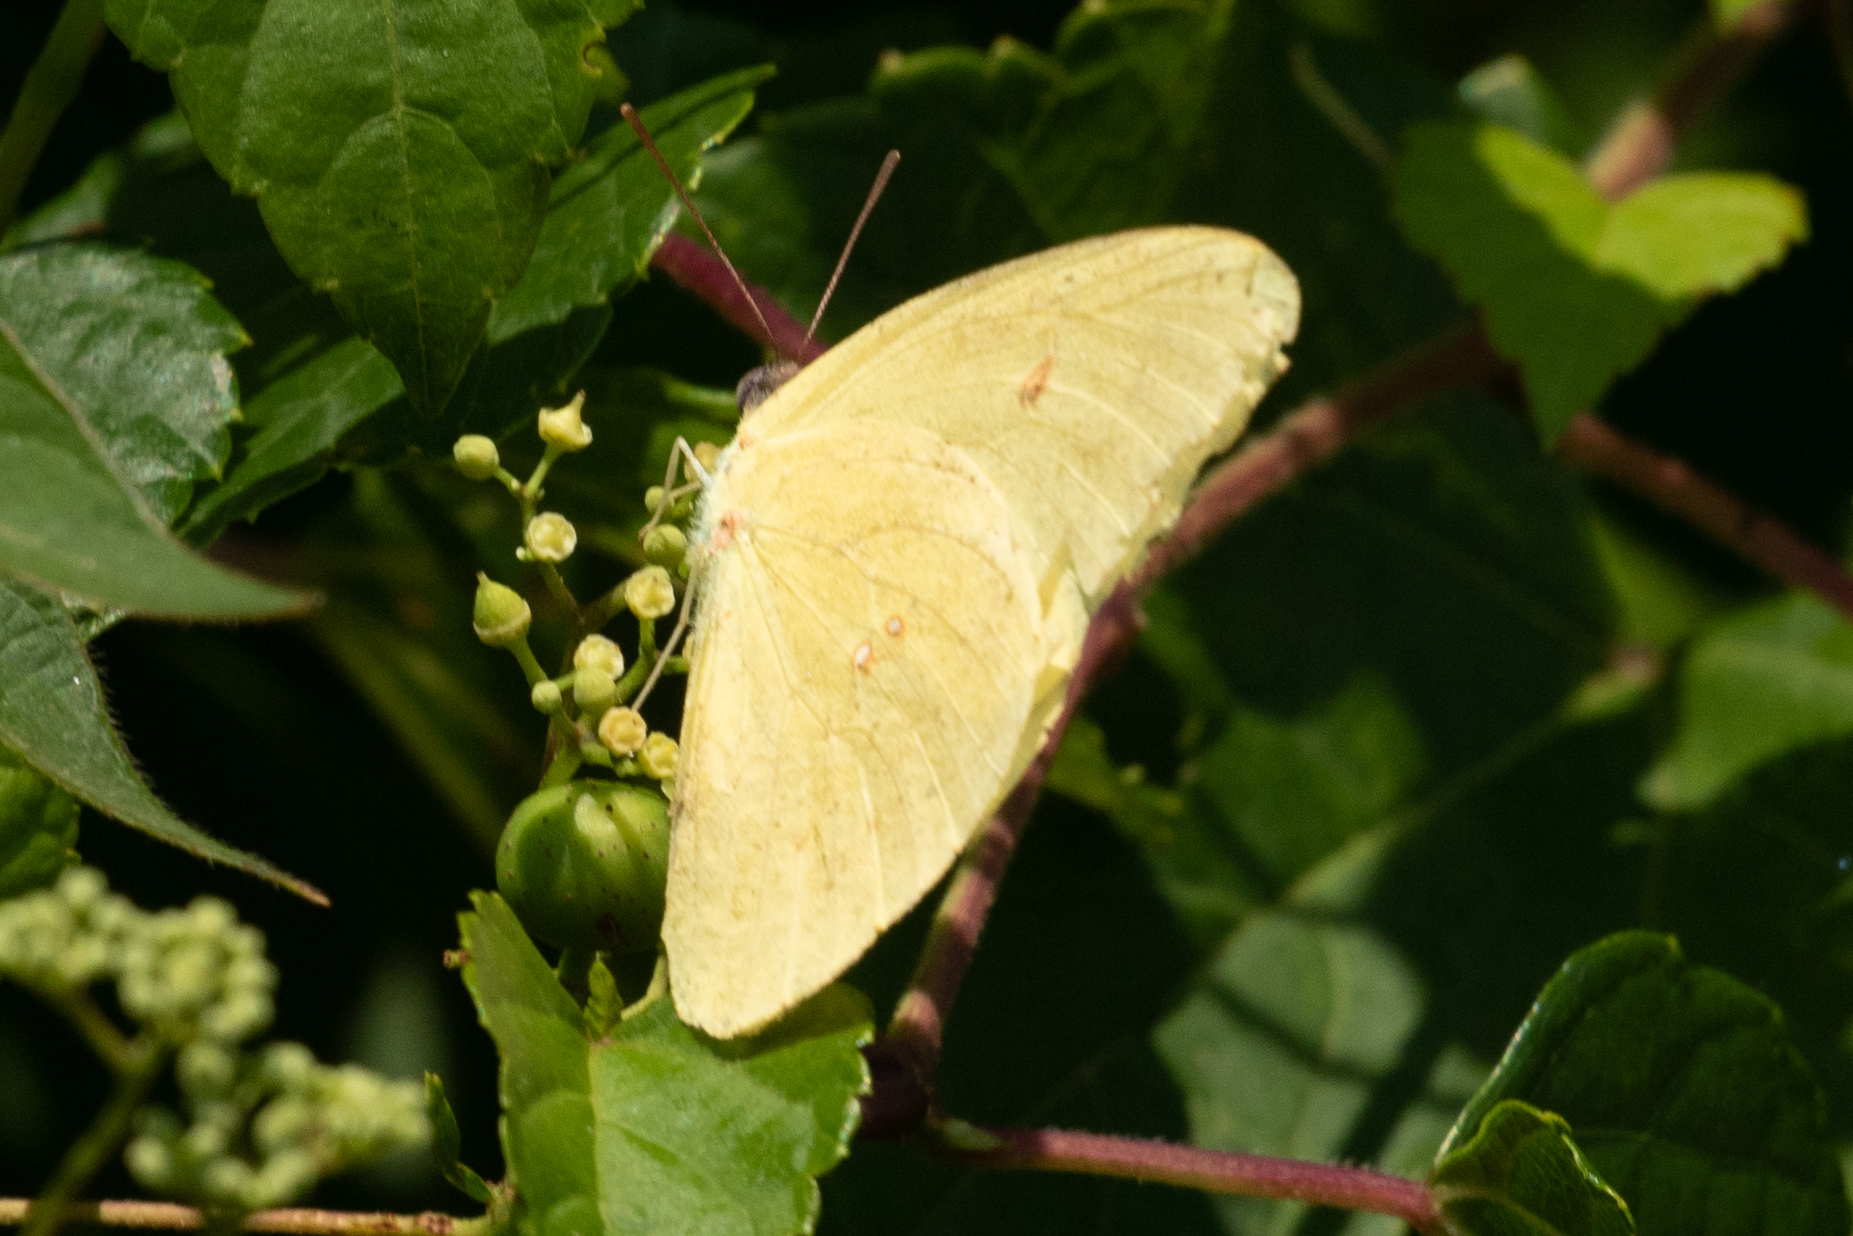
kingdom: Animalia
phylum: Arthropoda
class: Insecta
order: Lepidoptera
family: Pieridae
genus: Phoebis
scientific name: Phoebis sennae
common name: Cloudless sulphur
